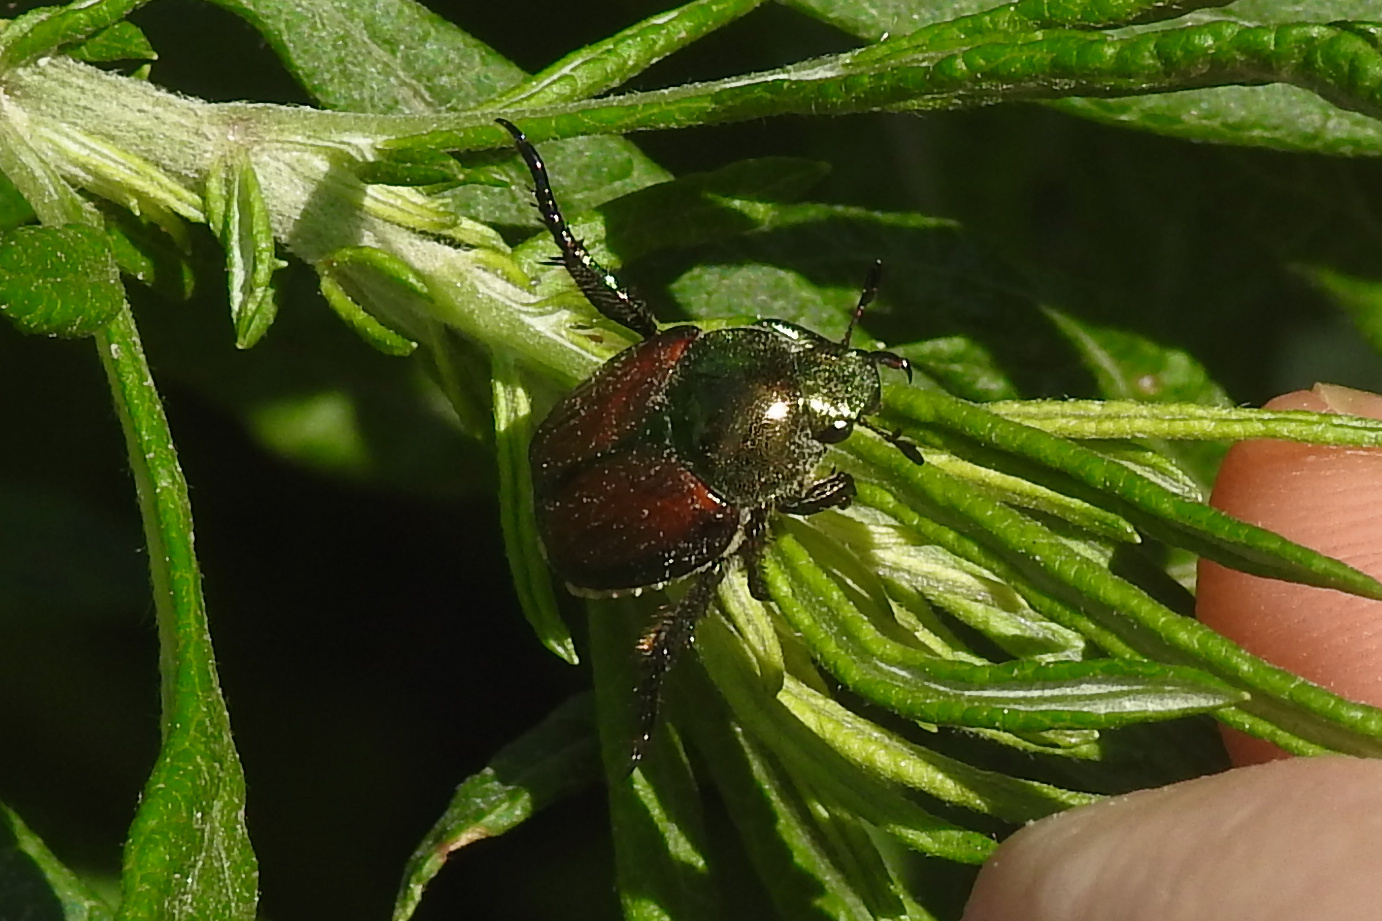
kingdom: Animalia
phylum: Arthropoda
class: Insecta
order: Coleoptera
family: Scarabaeidae
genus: Popillia
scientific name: Popillia japonica
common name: Japanese beetle
